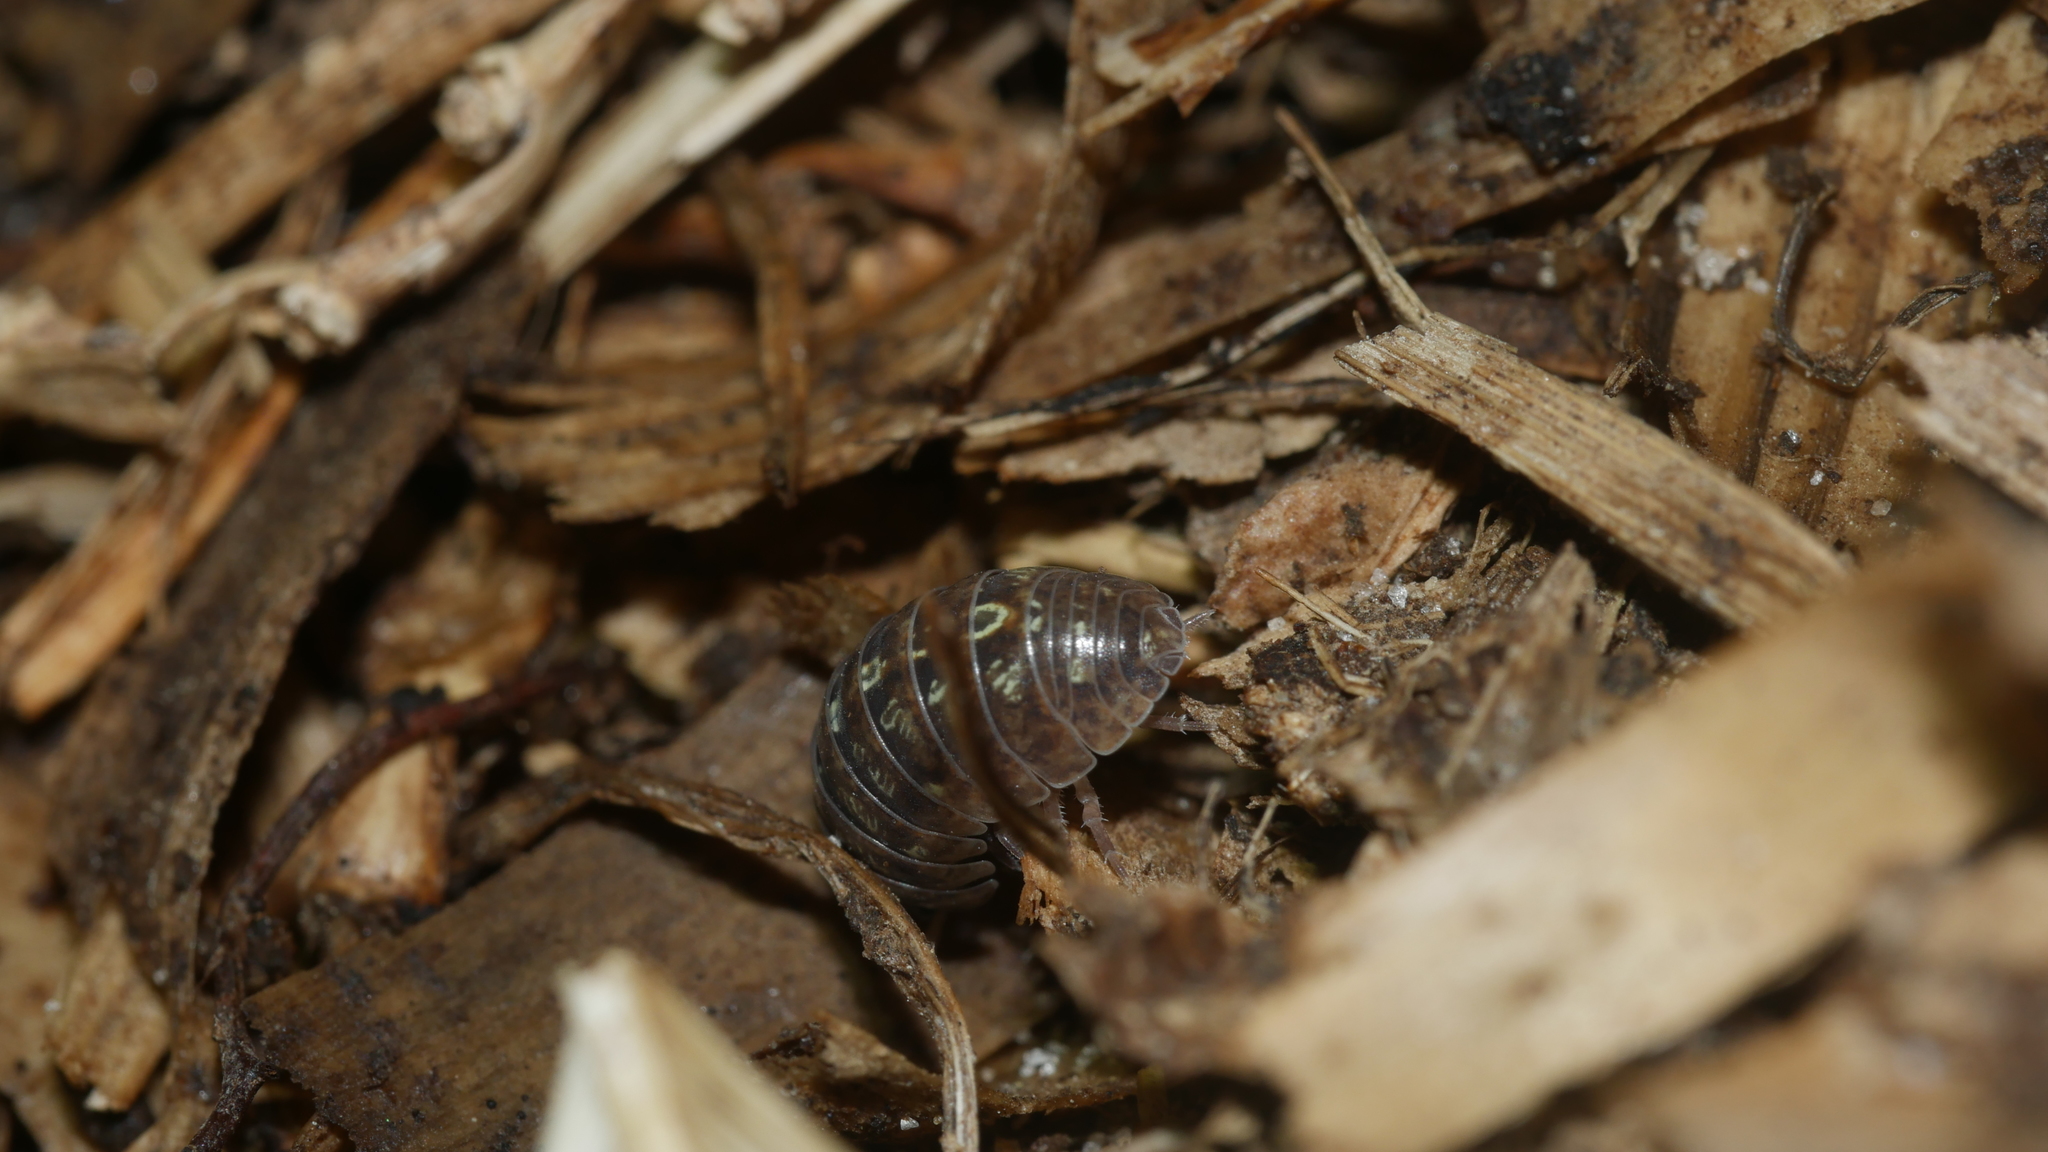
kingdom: Animalia
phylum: Arthropoda
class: Malacostraca
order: Isopoda
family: Armadillidiidae
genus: Armadillidium
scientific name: Armadillidium vulgare
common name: Common pill woodlouse
